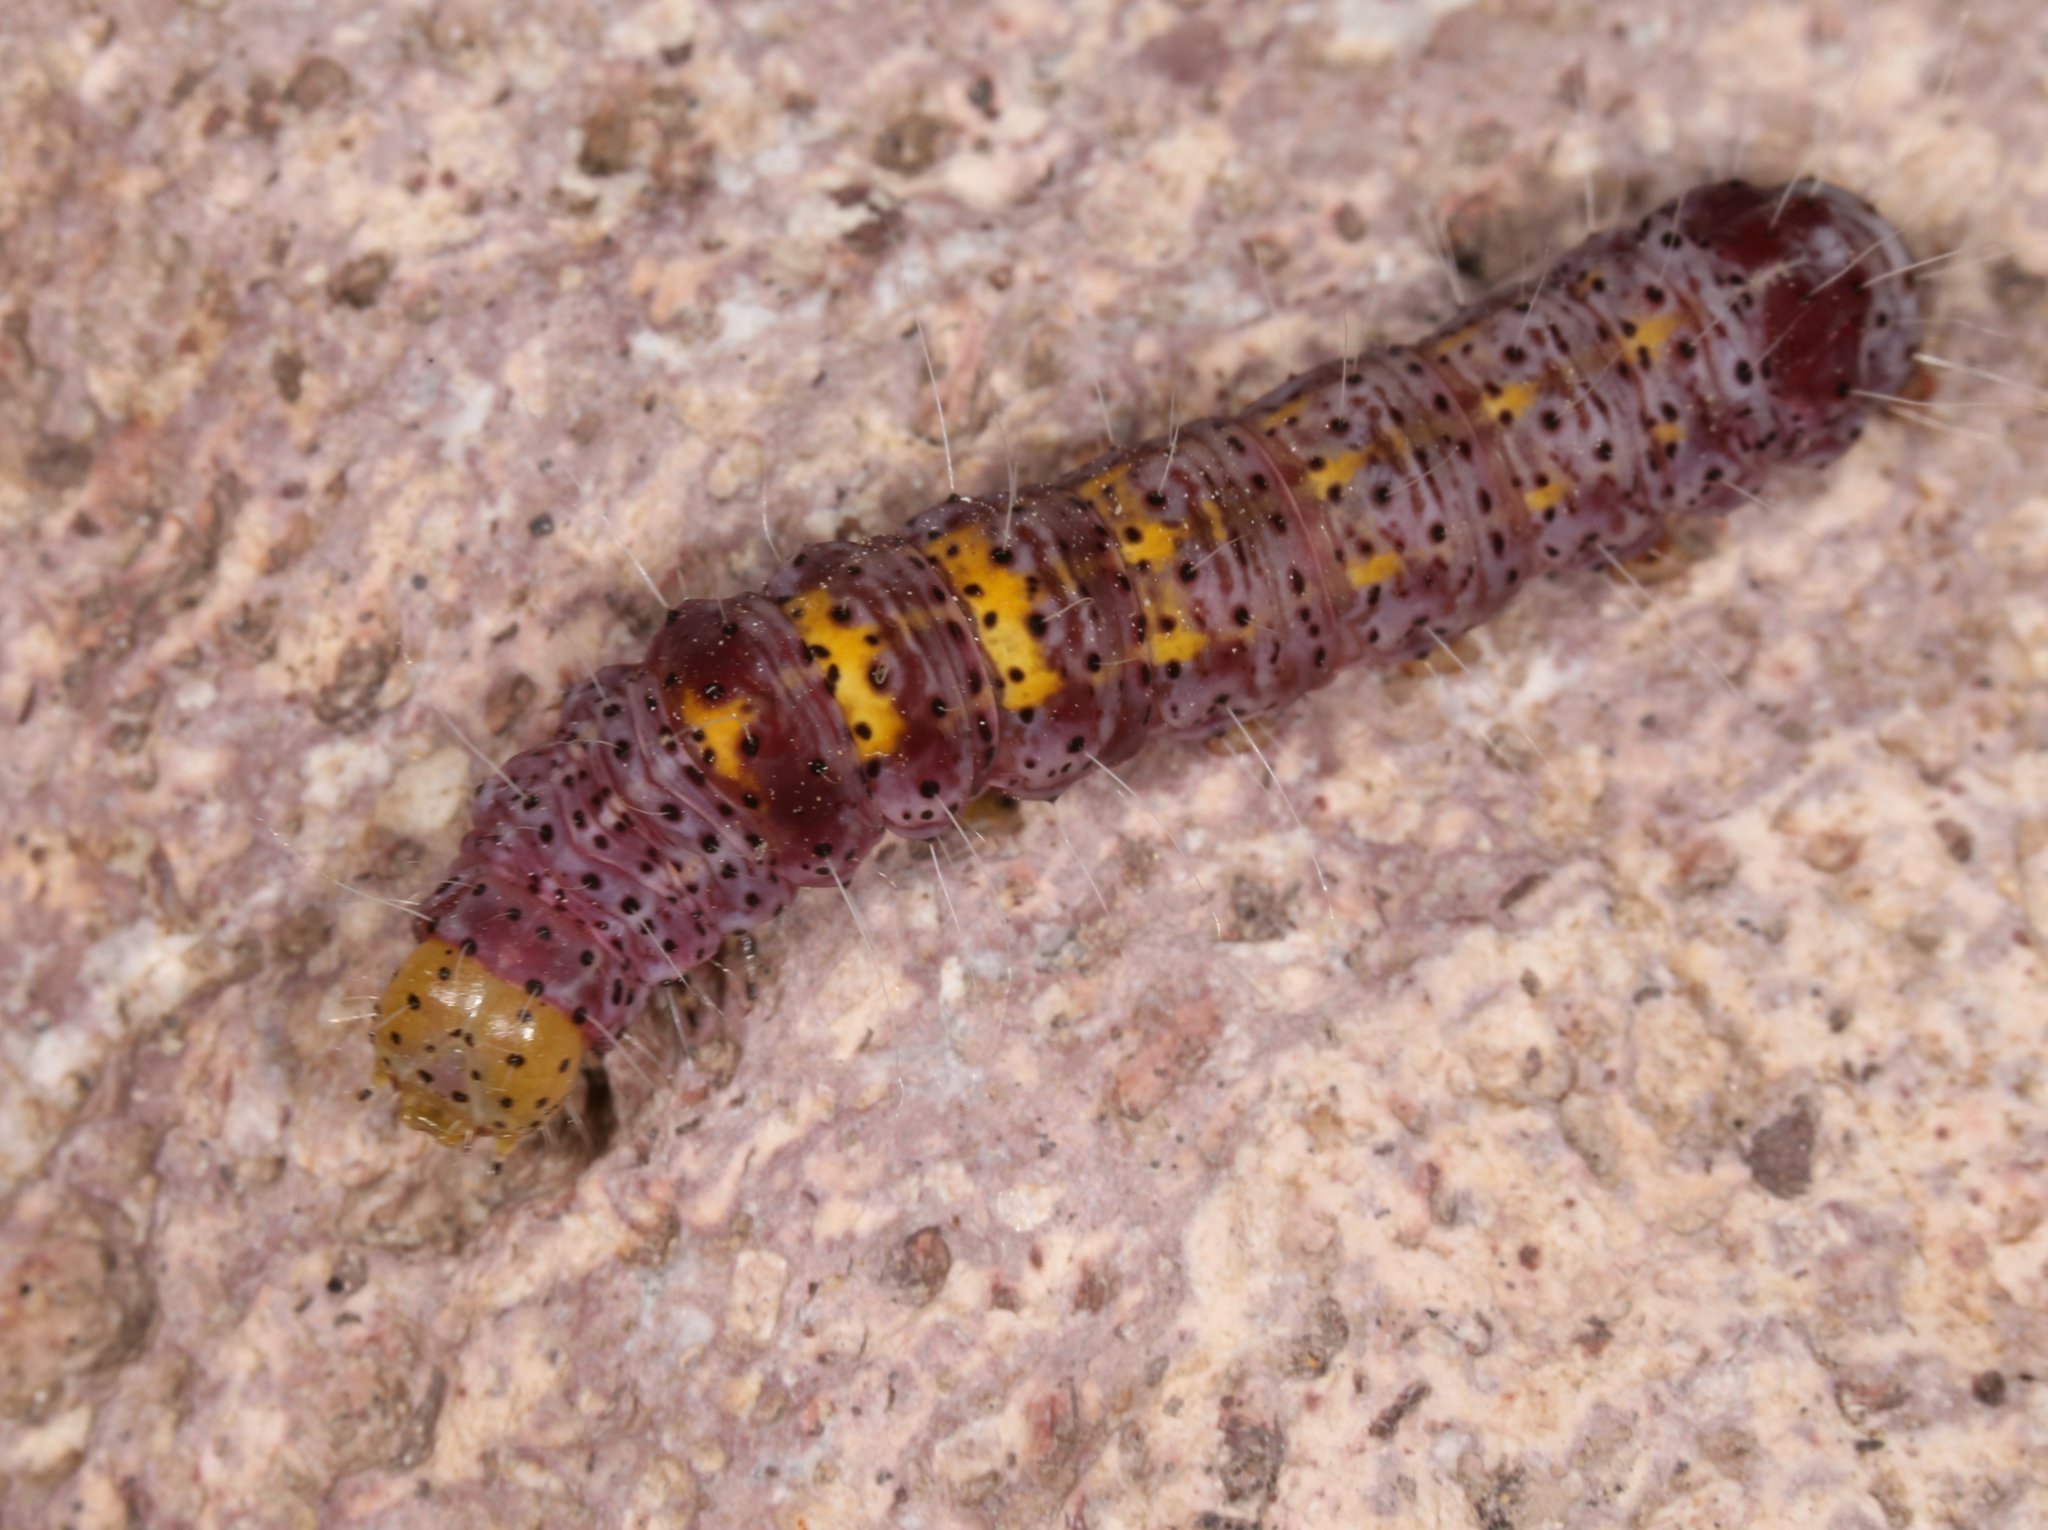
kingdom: Animalia
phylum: Arthropoda
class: Insecta
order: Lepidoptera
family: Noctuidae
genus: Gerra
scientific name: Gerra sevorsa
